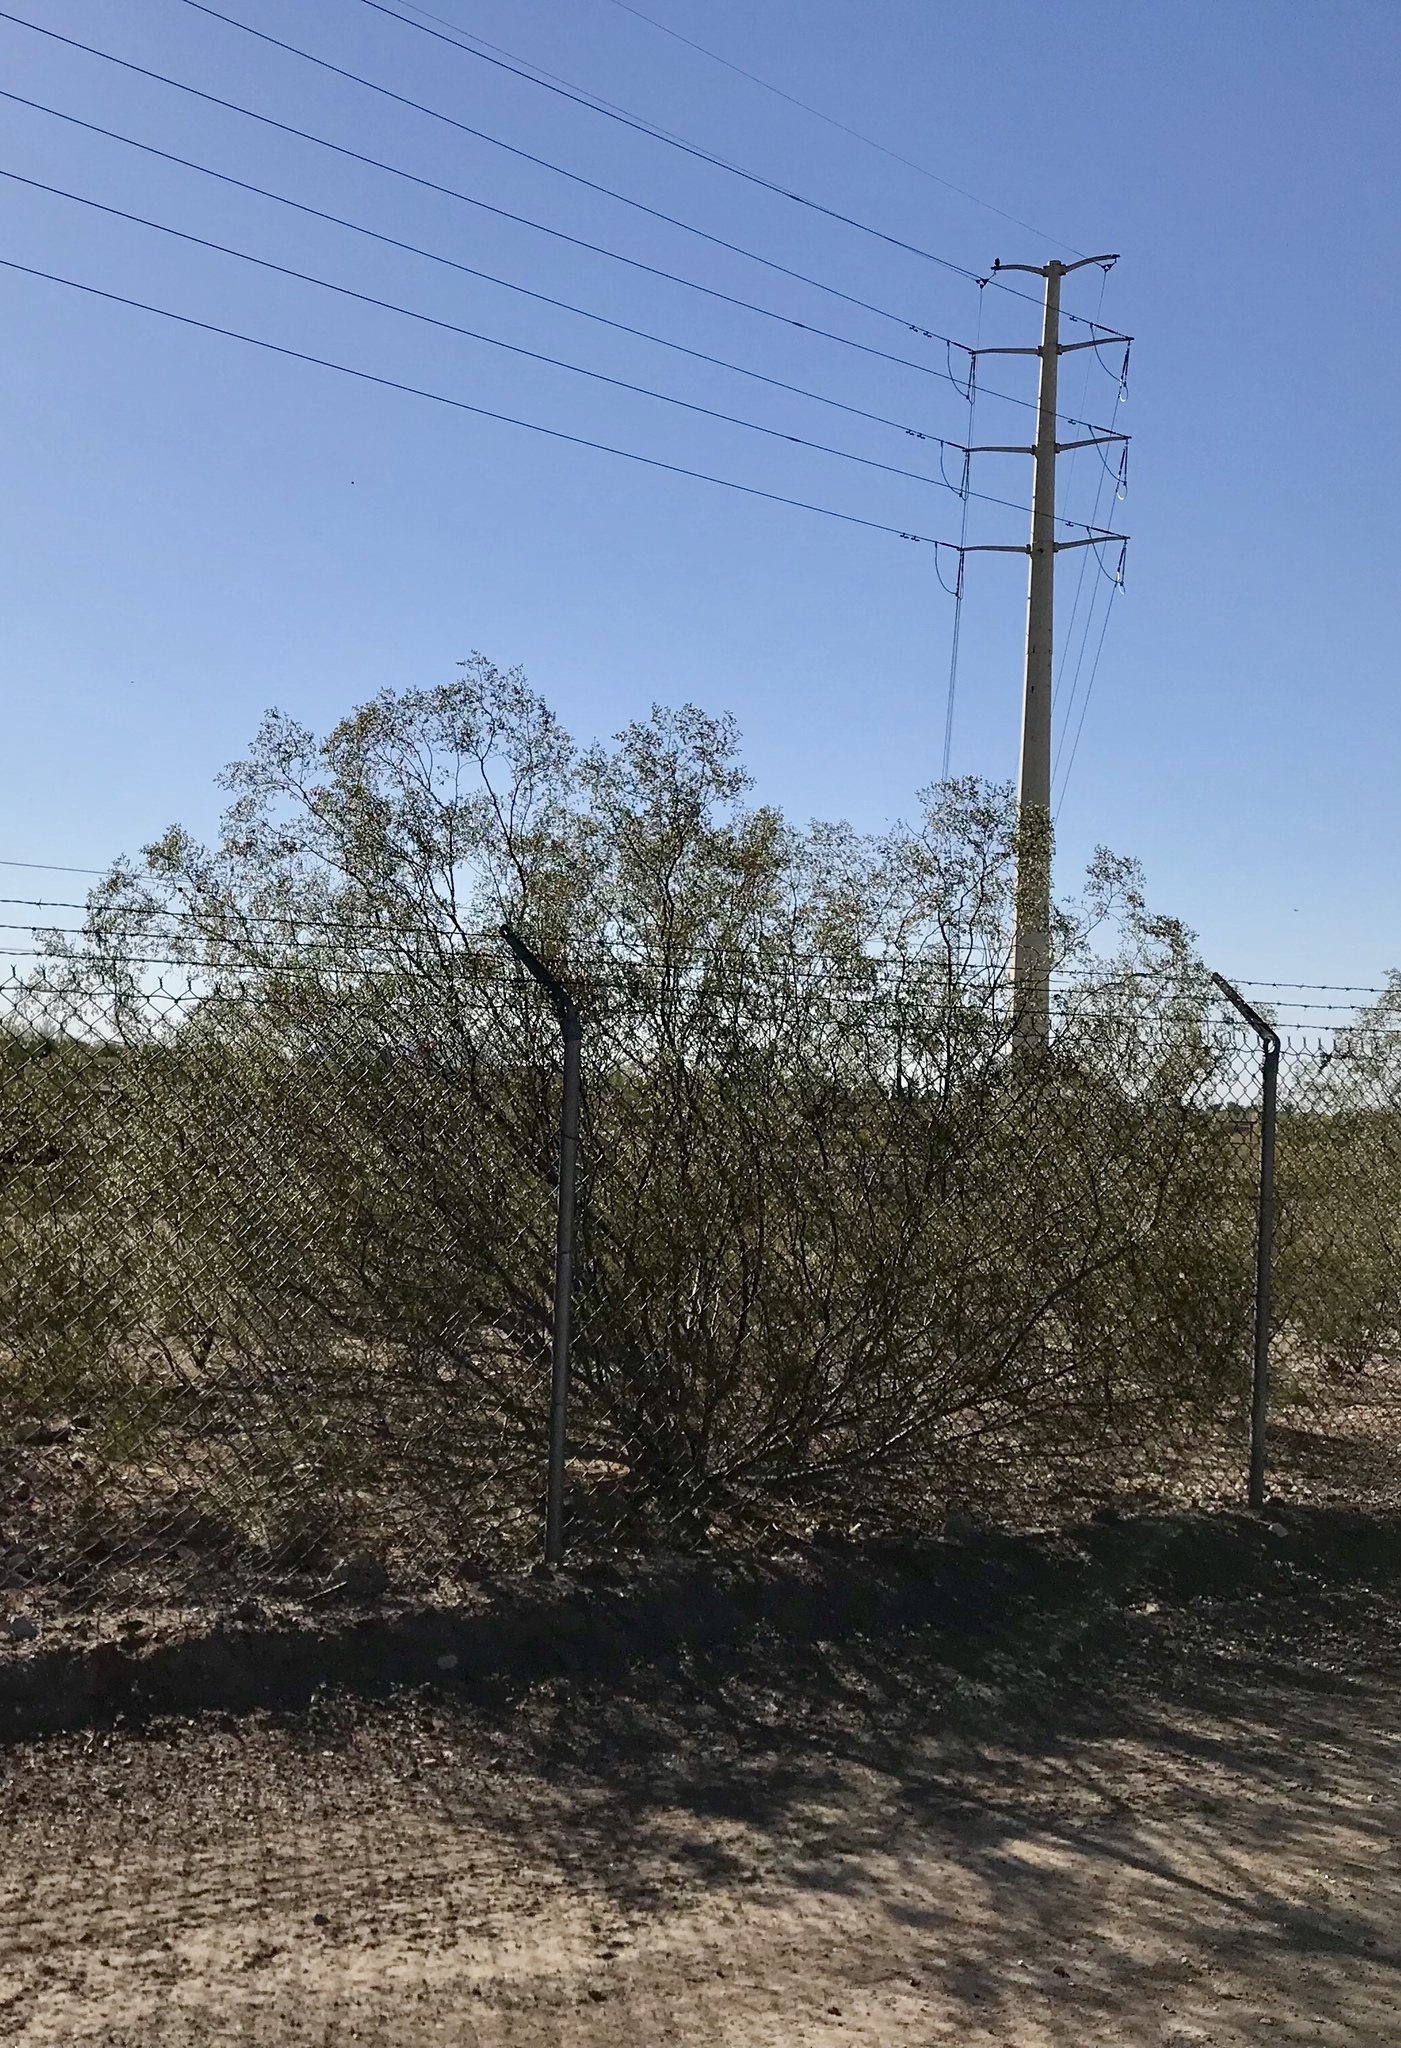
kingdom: Plantae
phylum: Tracheophyta
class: Magnoliopsida
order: Zygophyllales
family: Zygophyllaceae
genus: Larrea
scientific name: Larrea tridentata
